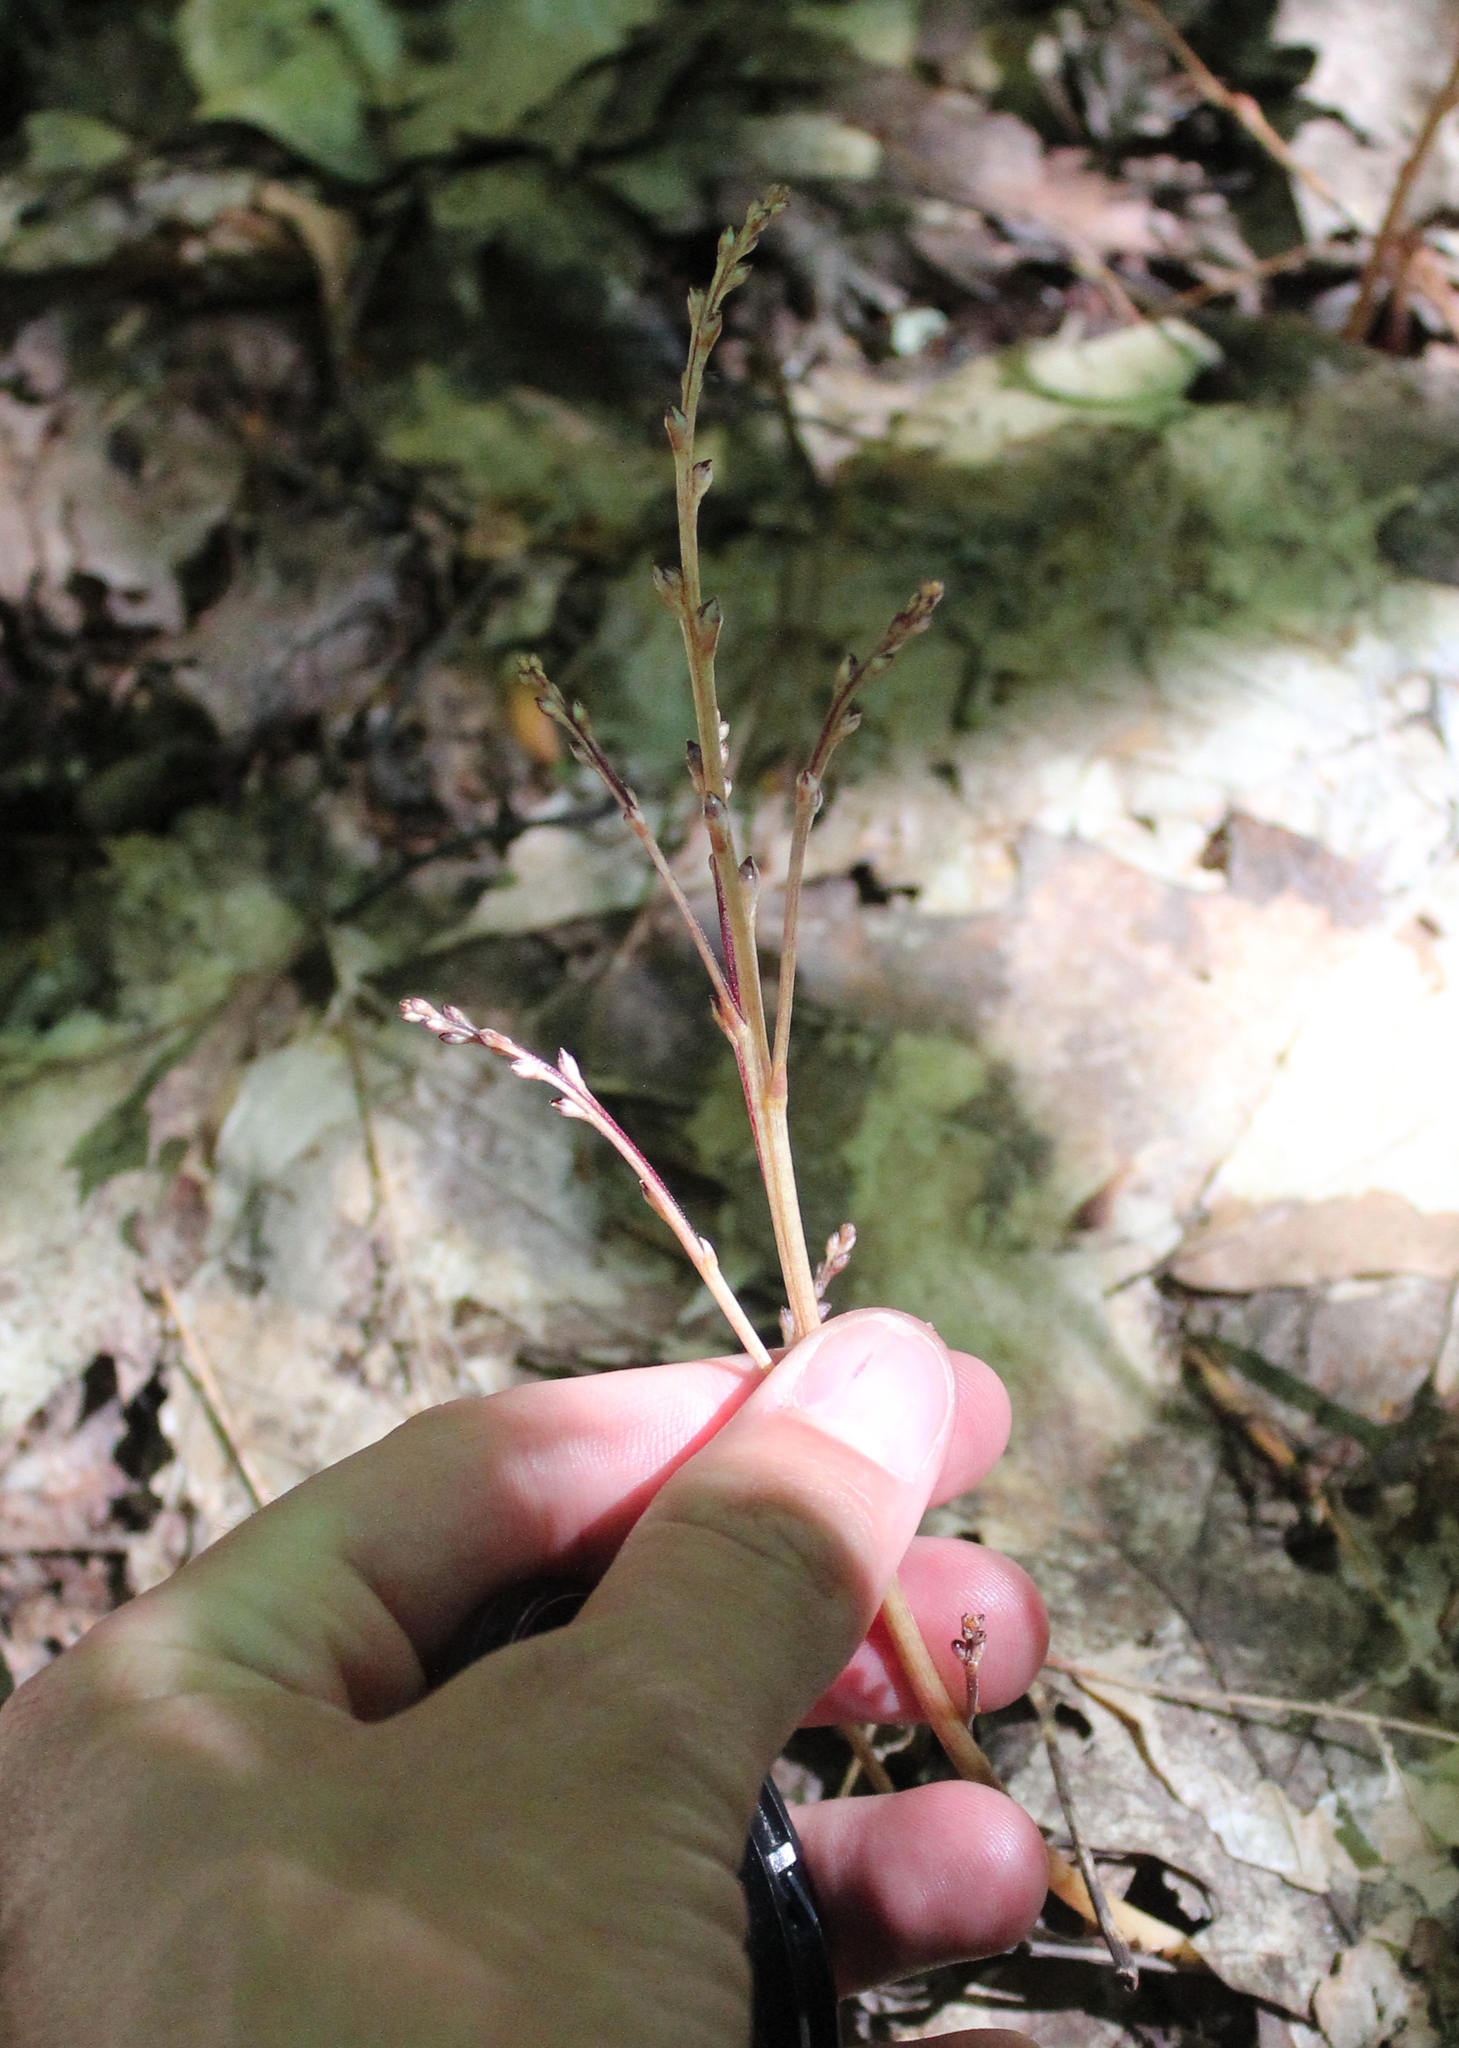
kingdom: Plantae
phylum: Tracheophyta
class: Magnoliopsida
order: Lamiales
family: Orobanchaceae
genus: Epifagus
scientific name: Epifagus virginiana
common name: Beechdrops
